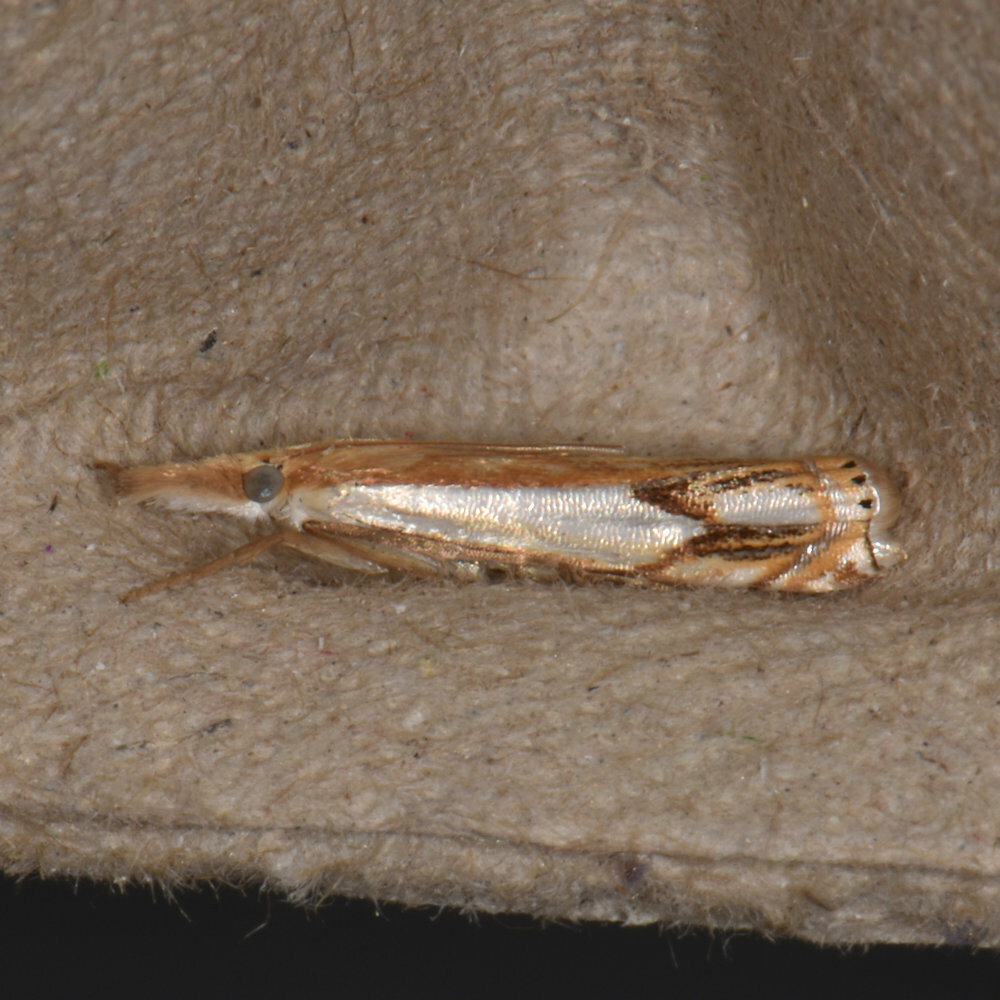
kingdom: Animalia
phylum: Arthropoda
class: Insecta
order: Lepidoptera
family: Crambidae
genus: Crambus
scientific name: Crambus agitatellus
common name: Double-banded grass-veneer
